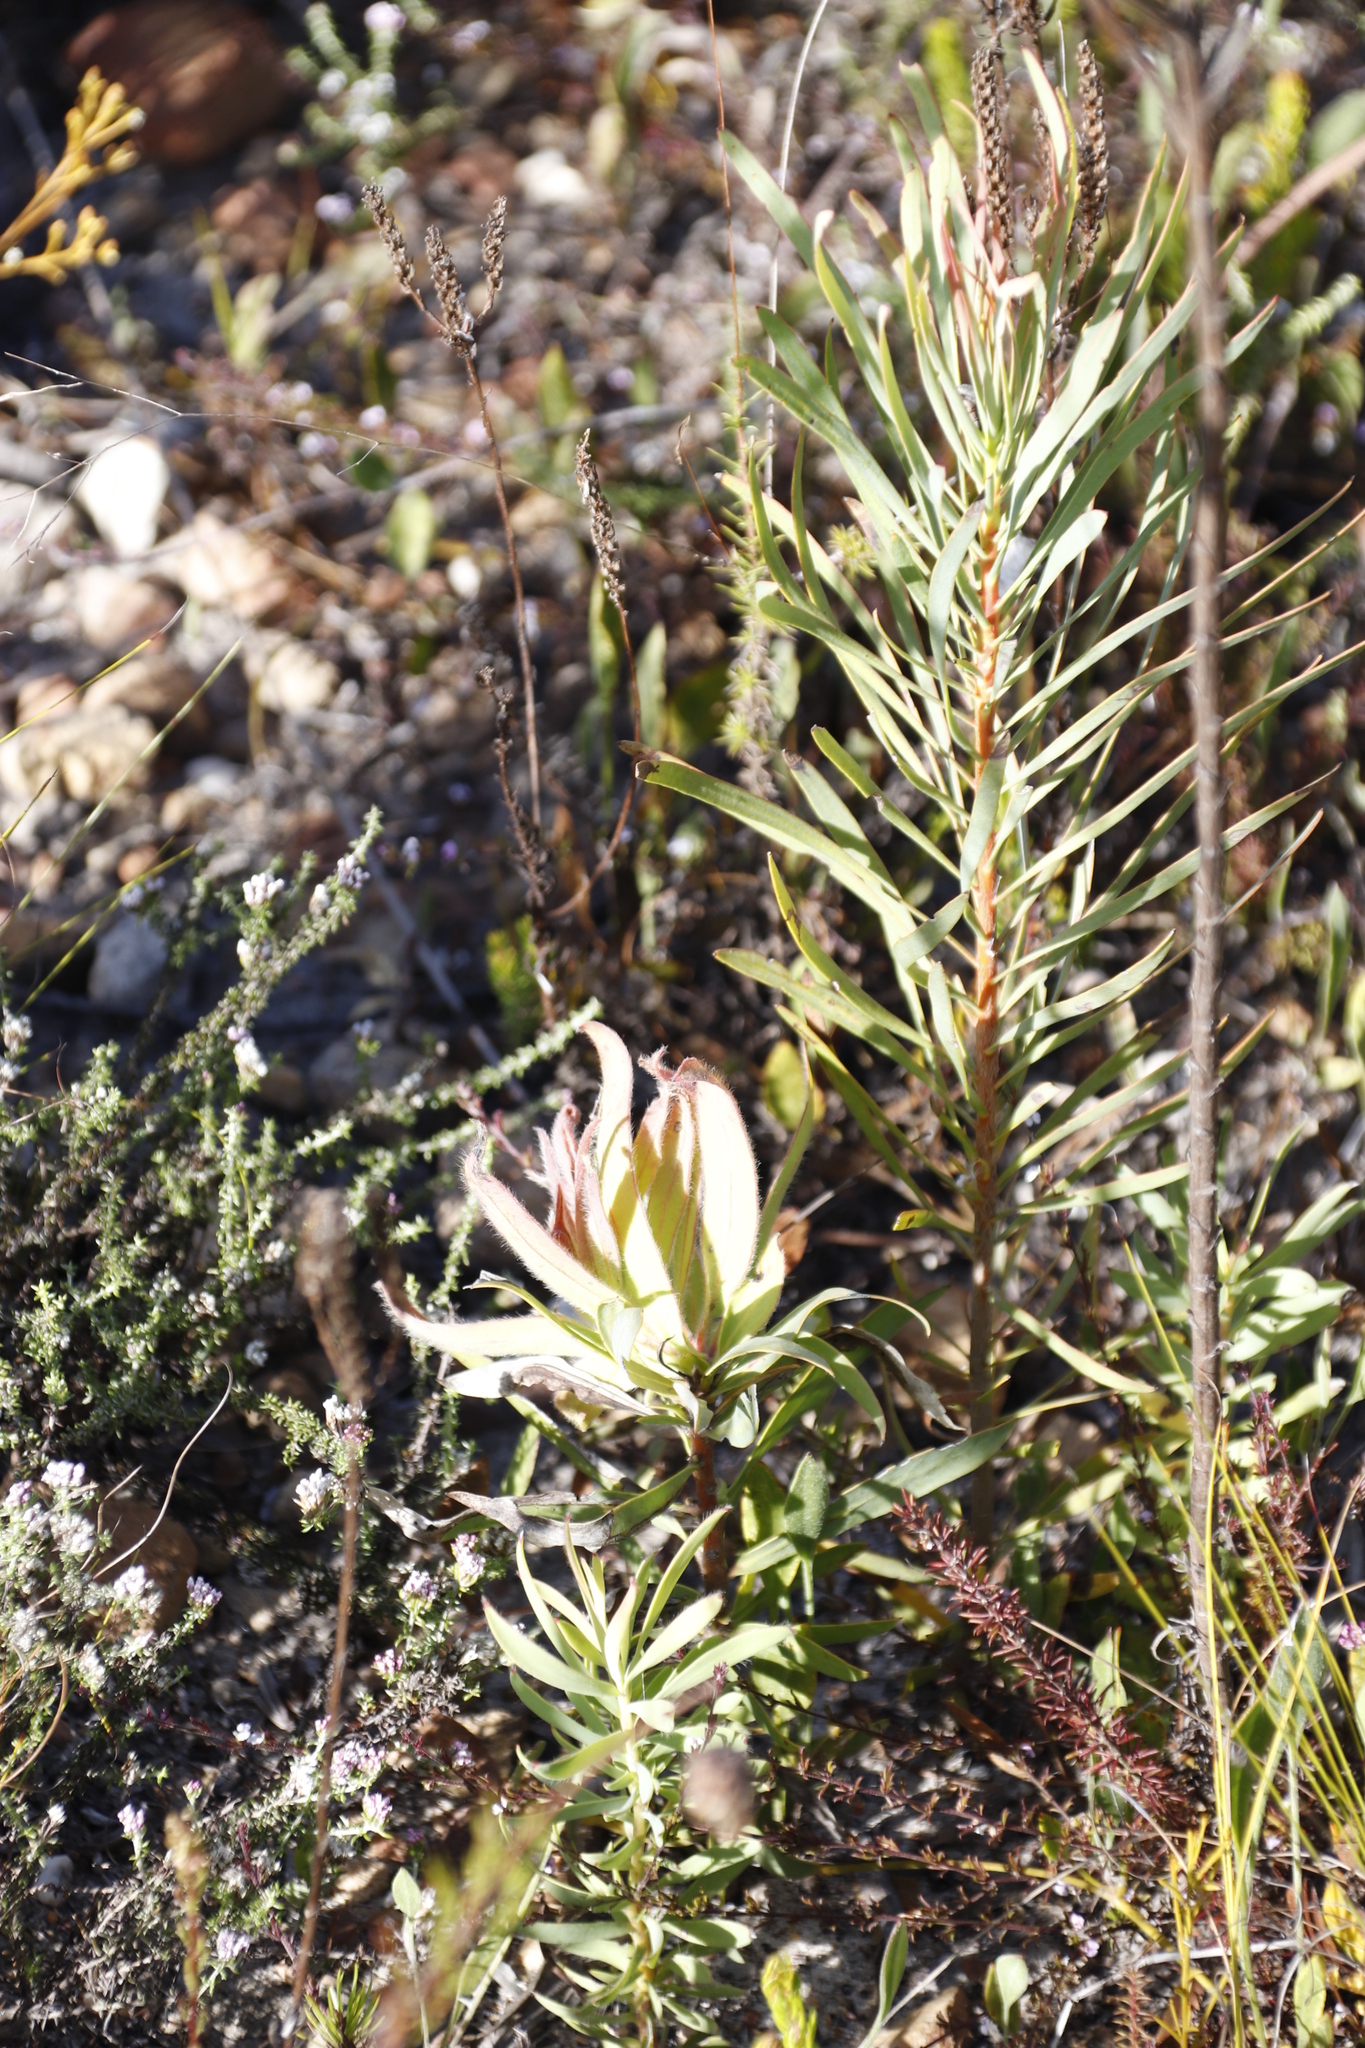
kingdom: Plantae
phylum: Tracheophyta
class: Magnoliopsida
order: Proteales
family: Proteaceae
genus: Protea
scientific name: Protea repens
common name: Sugarbush
